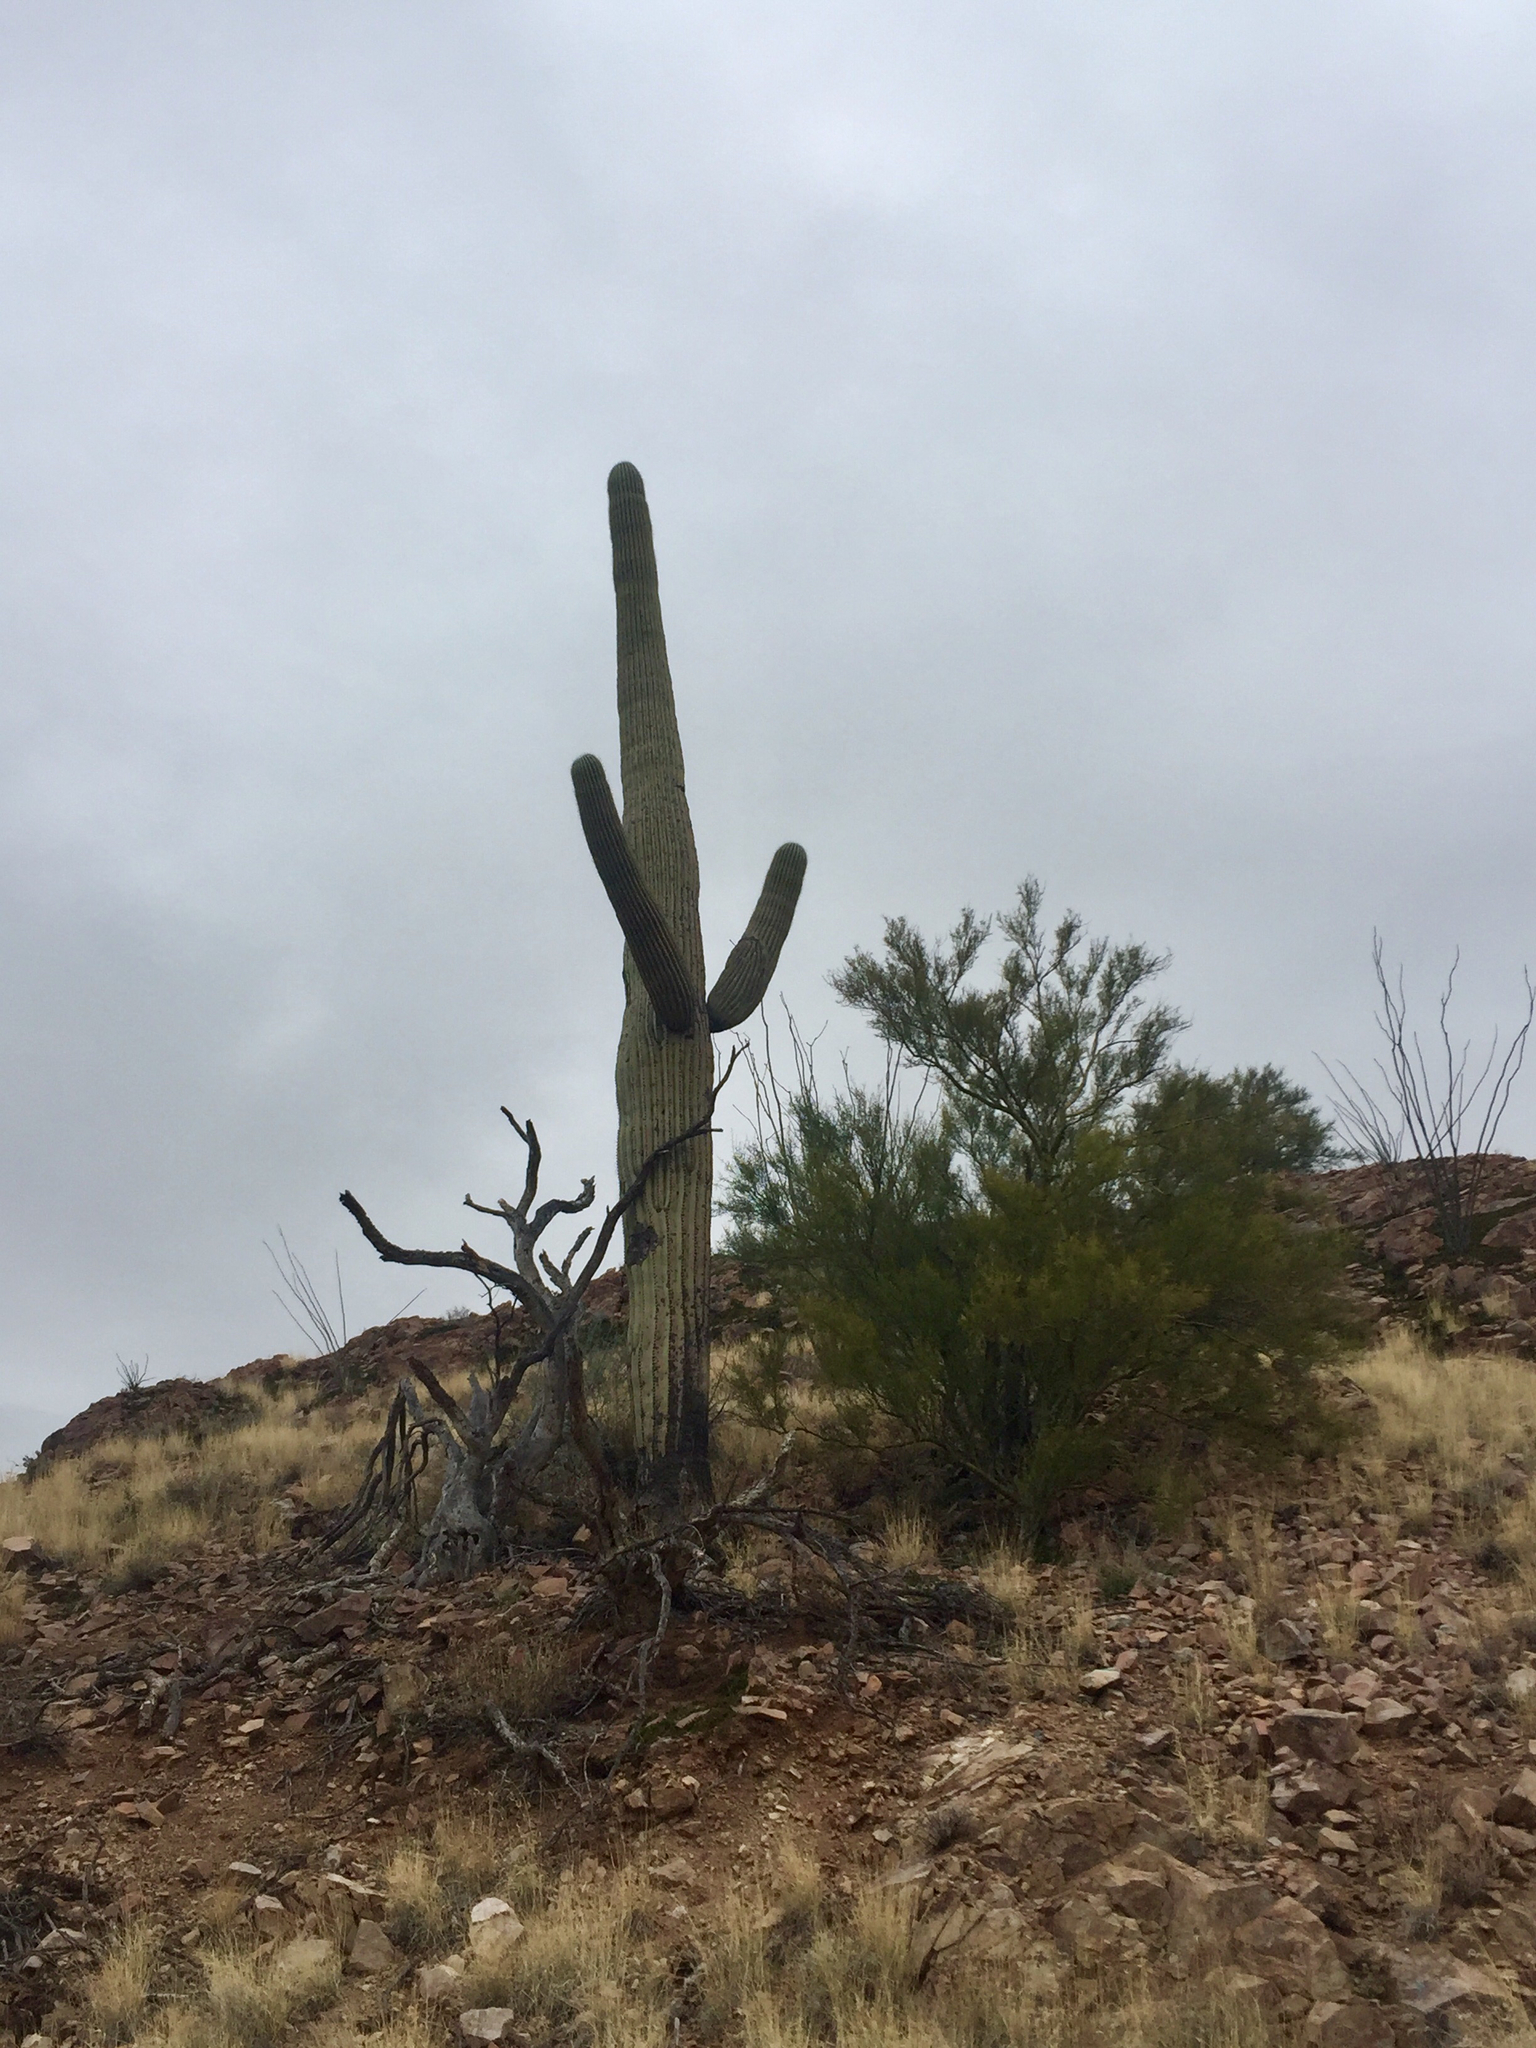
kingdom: Plantae
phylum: Tracheophyta
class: Magnoliopsida
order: Caryophyllales
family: Cactaceae
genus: Carnegiea
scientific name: Carnegiea gigantea
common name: Saguaro
